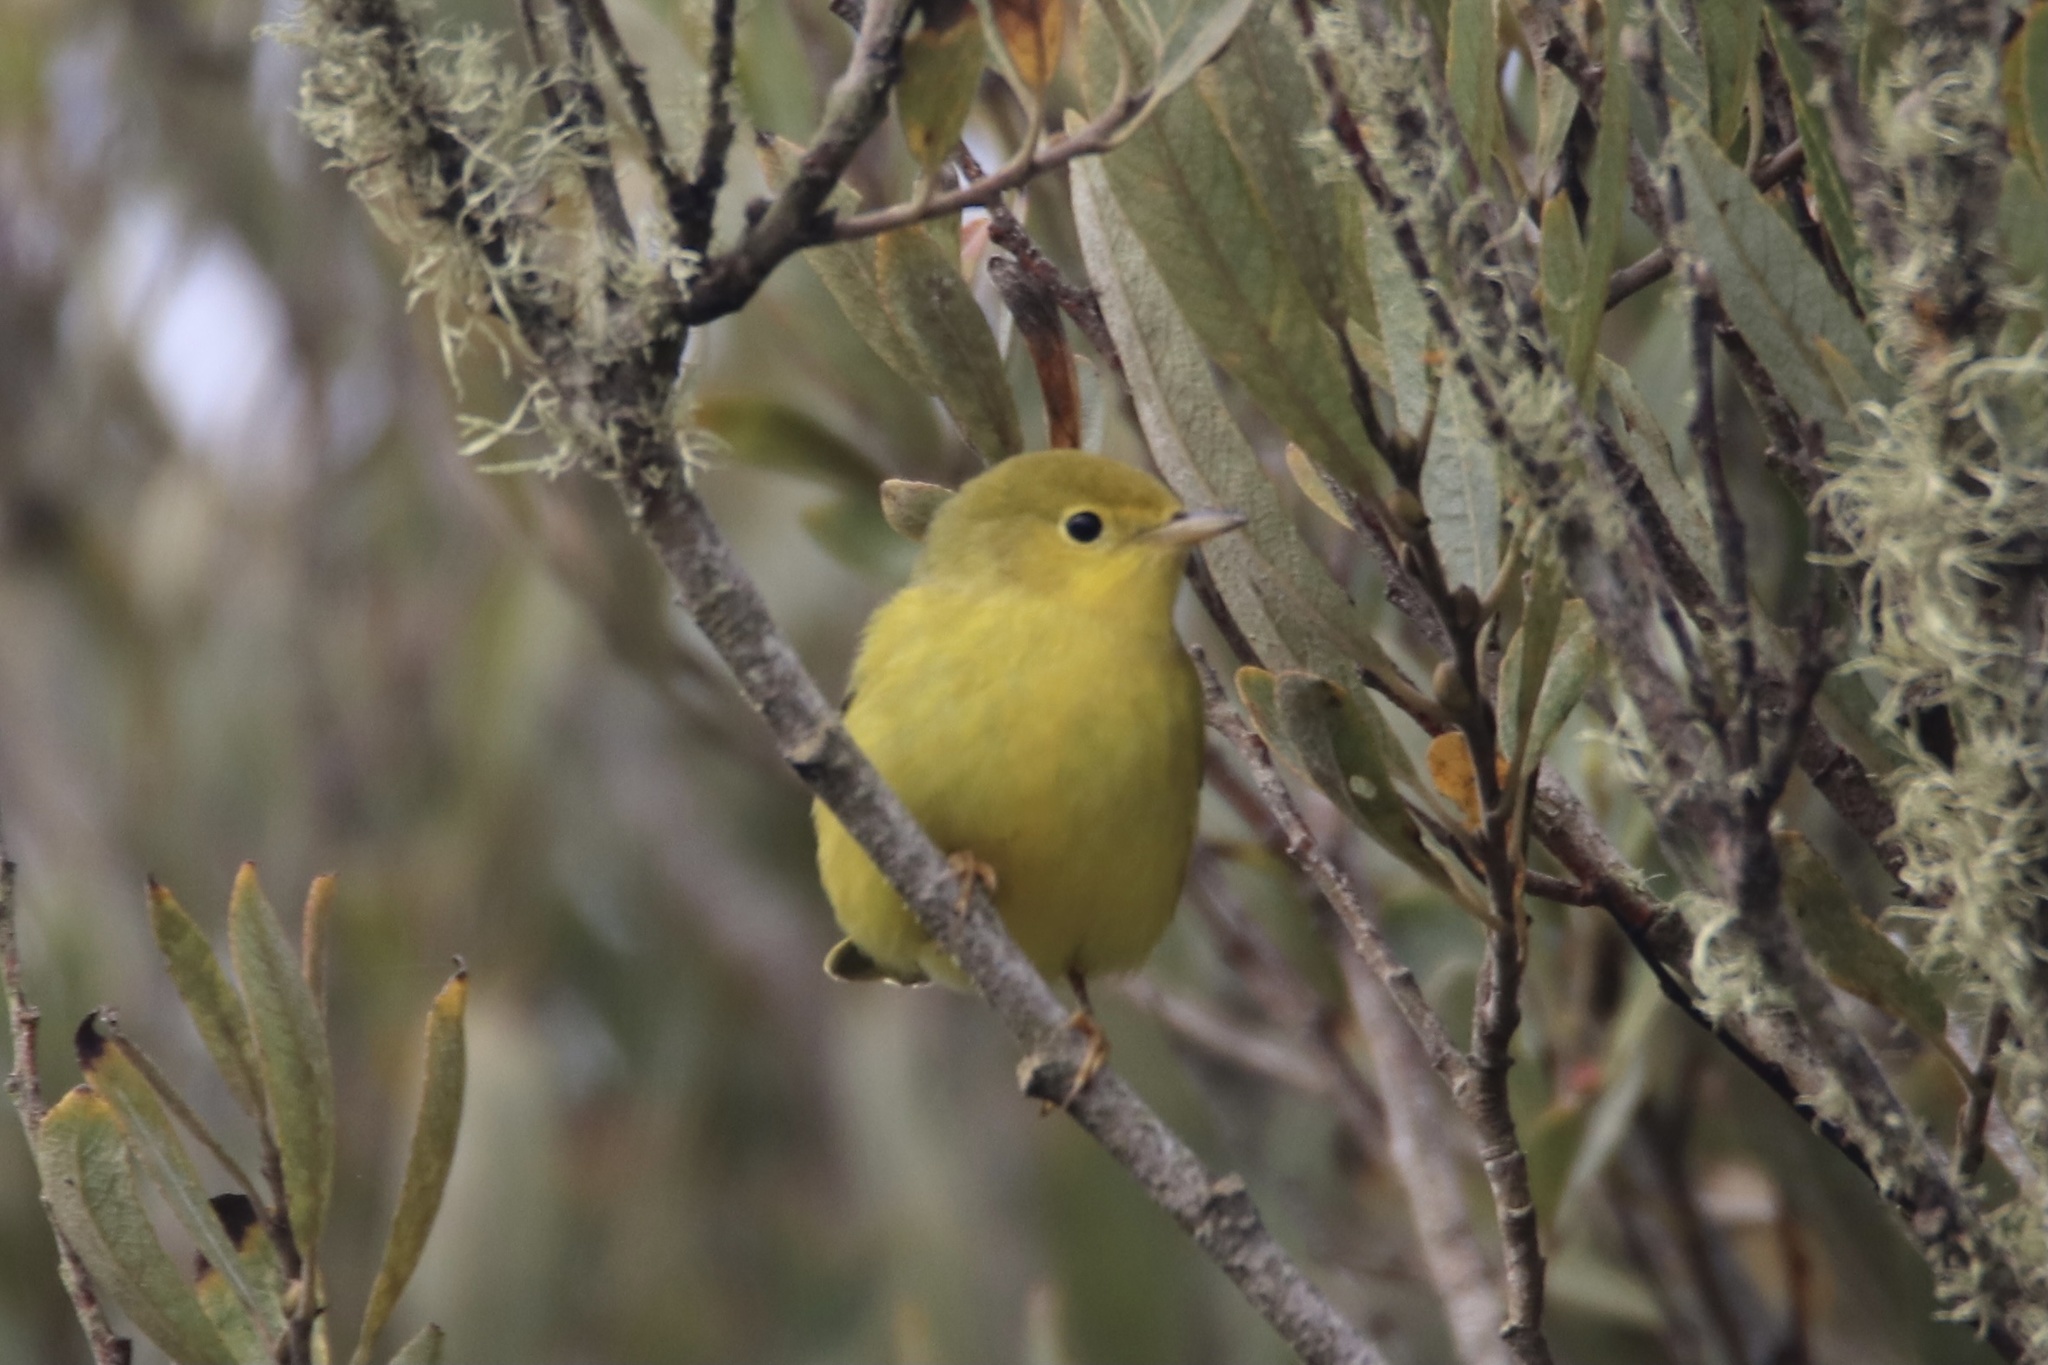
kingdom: Animalia
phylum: Chordata
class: Aves
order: Passeriformes
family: Parulidae
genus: Setophaga
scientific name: Setophaga petechia
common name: Yellow warbler
